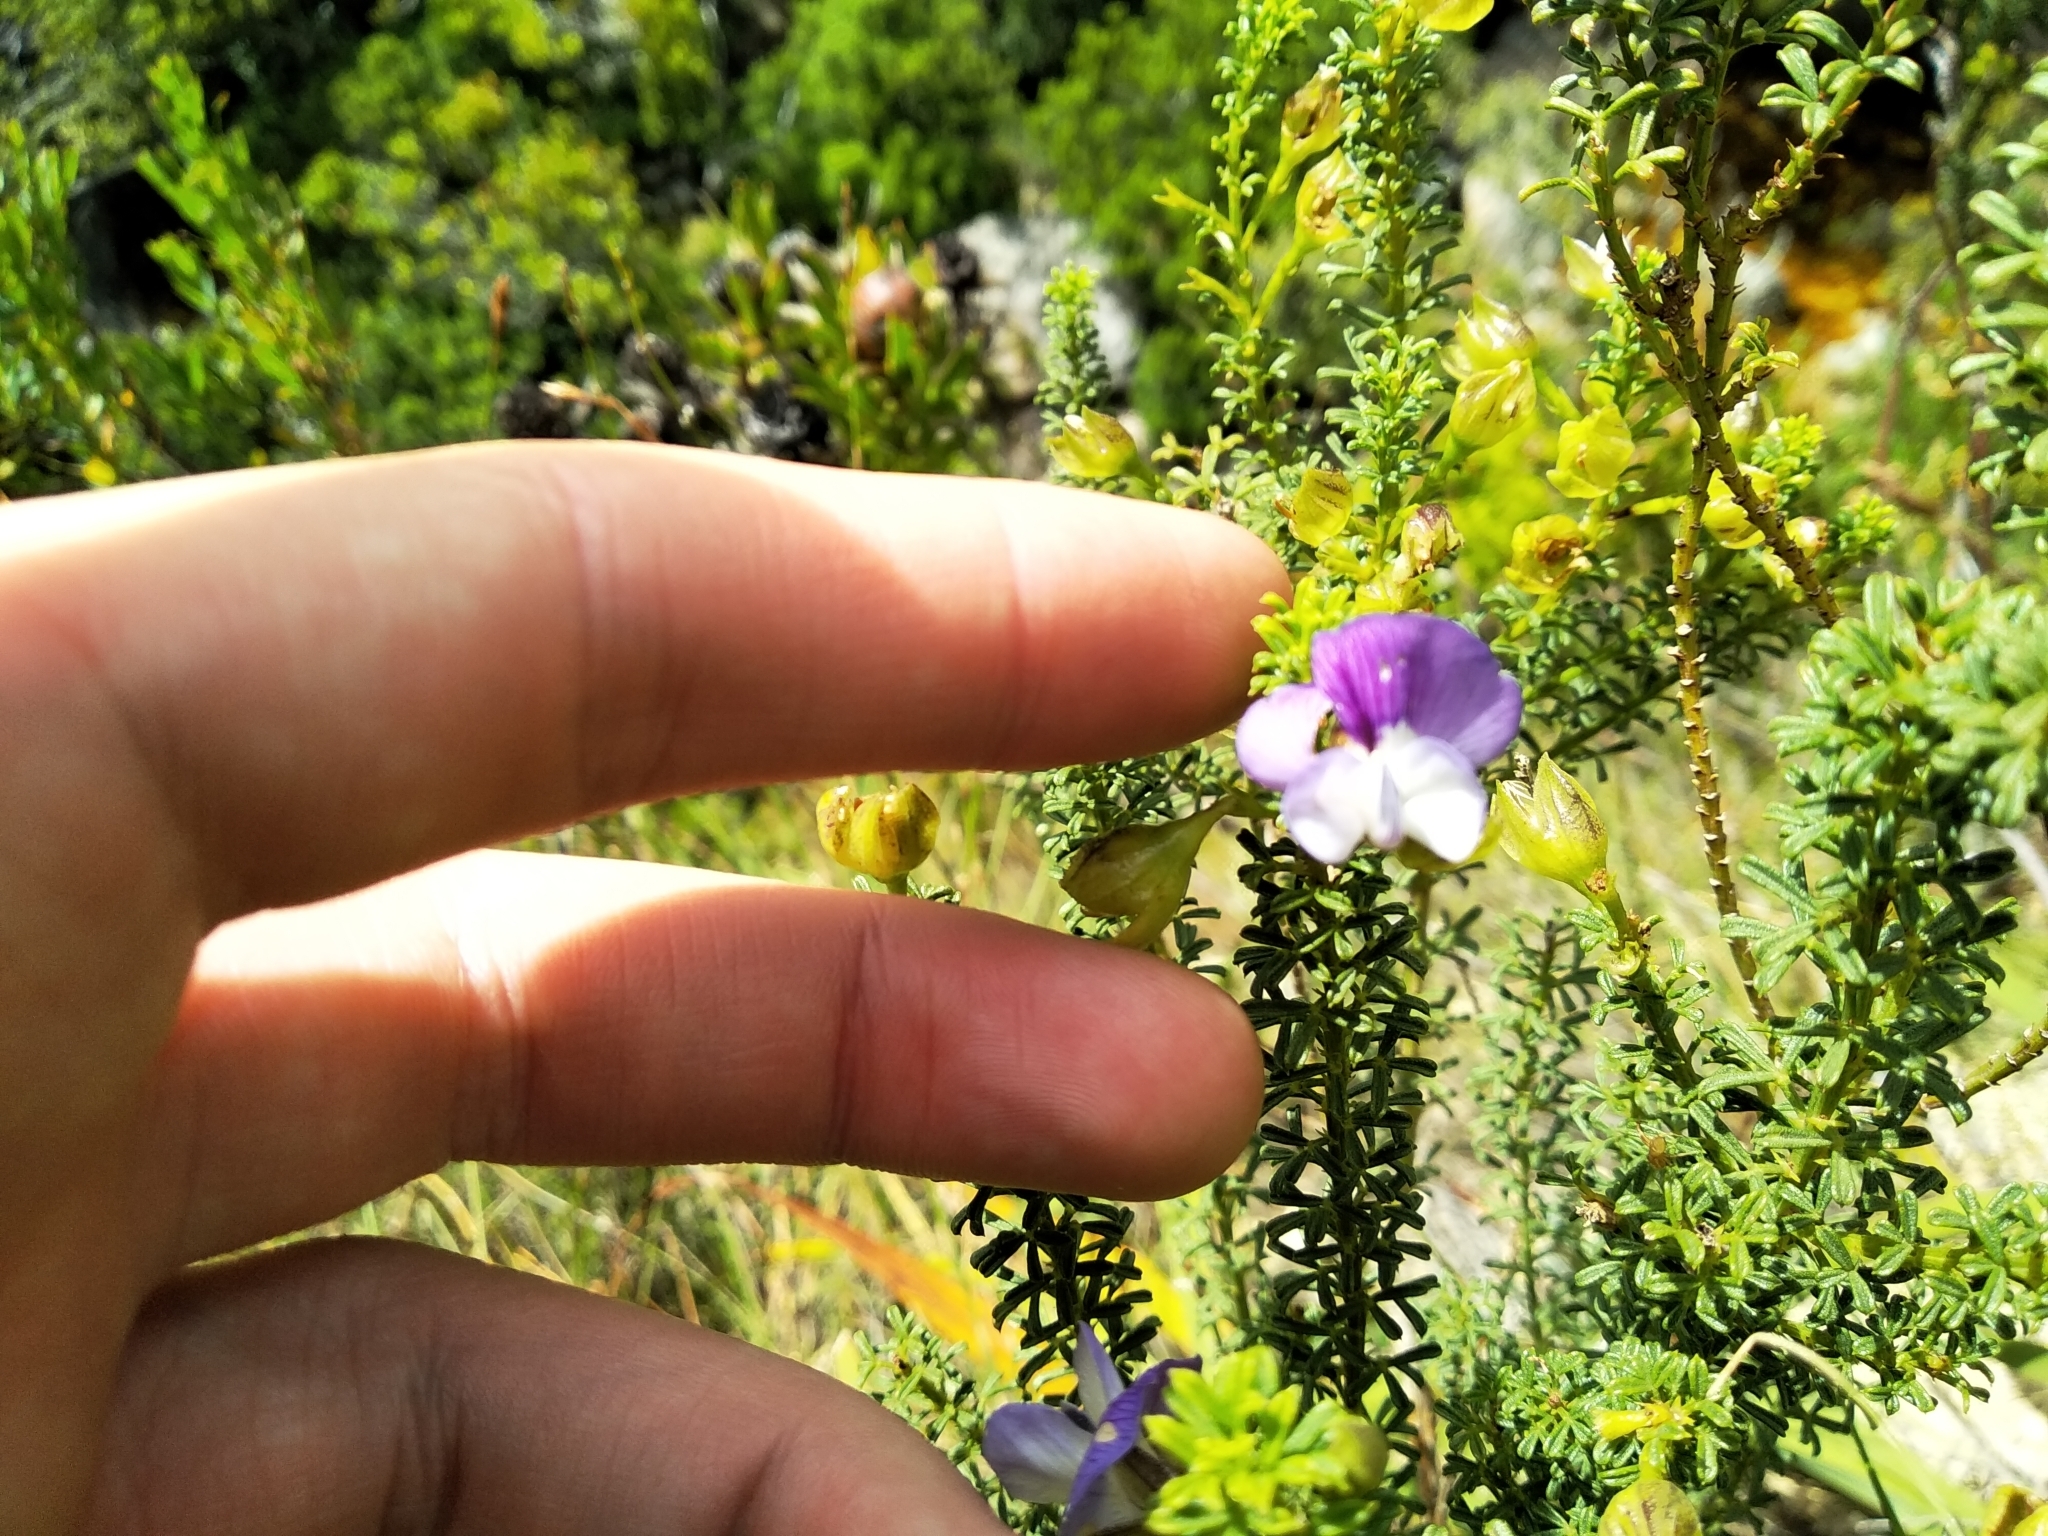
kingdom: Plantae
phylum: Tracheophyta
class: Magnoliopsida
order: Fabales
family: Fabaceae
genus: Psoralea
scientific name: Psoralea aculeata
